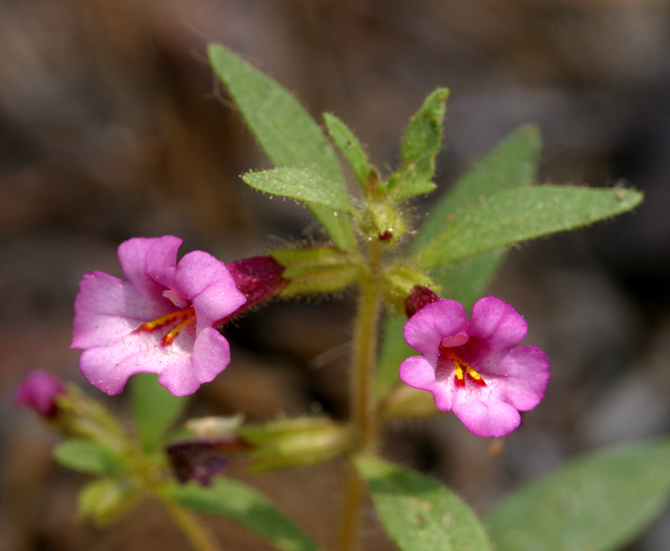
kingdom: Plantae
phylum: Tracheophyta
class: Magnoliopsida
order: Lamiales
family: Phrymaceae
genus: Diplacus
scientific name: Diplacus torreyi
